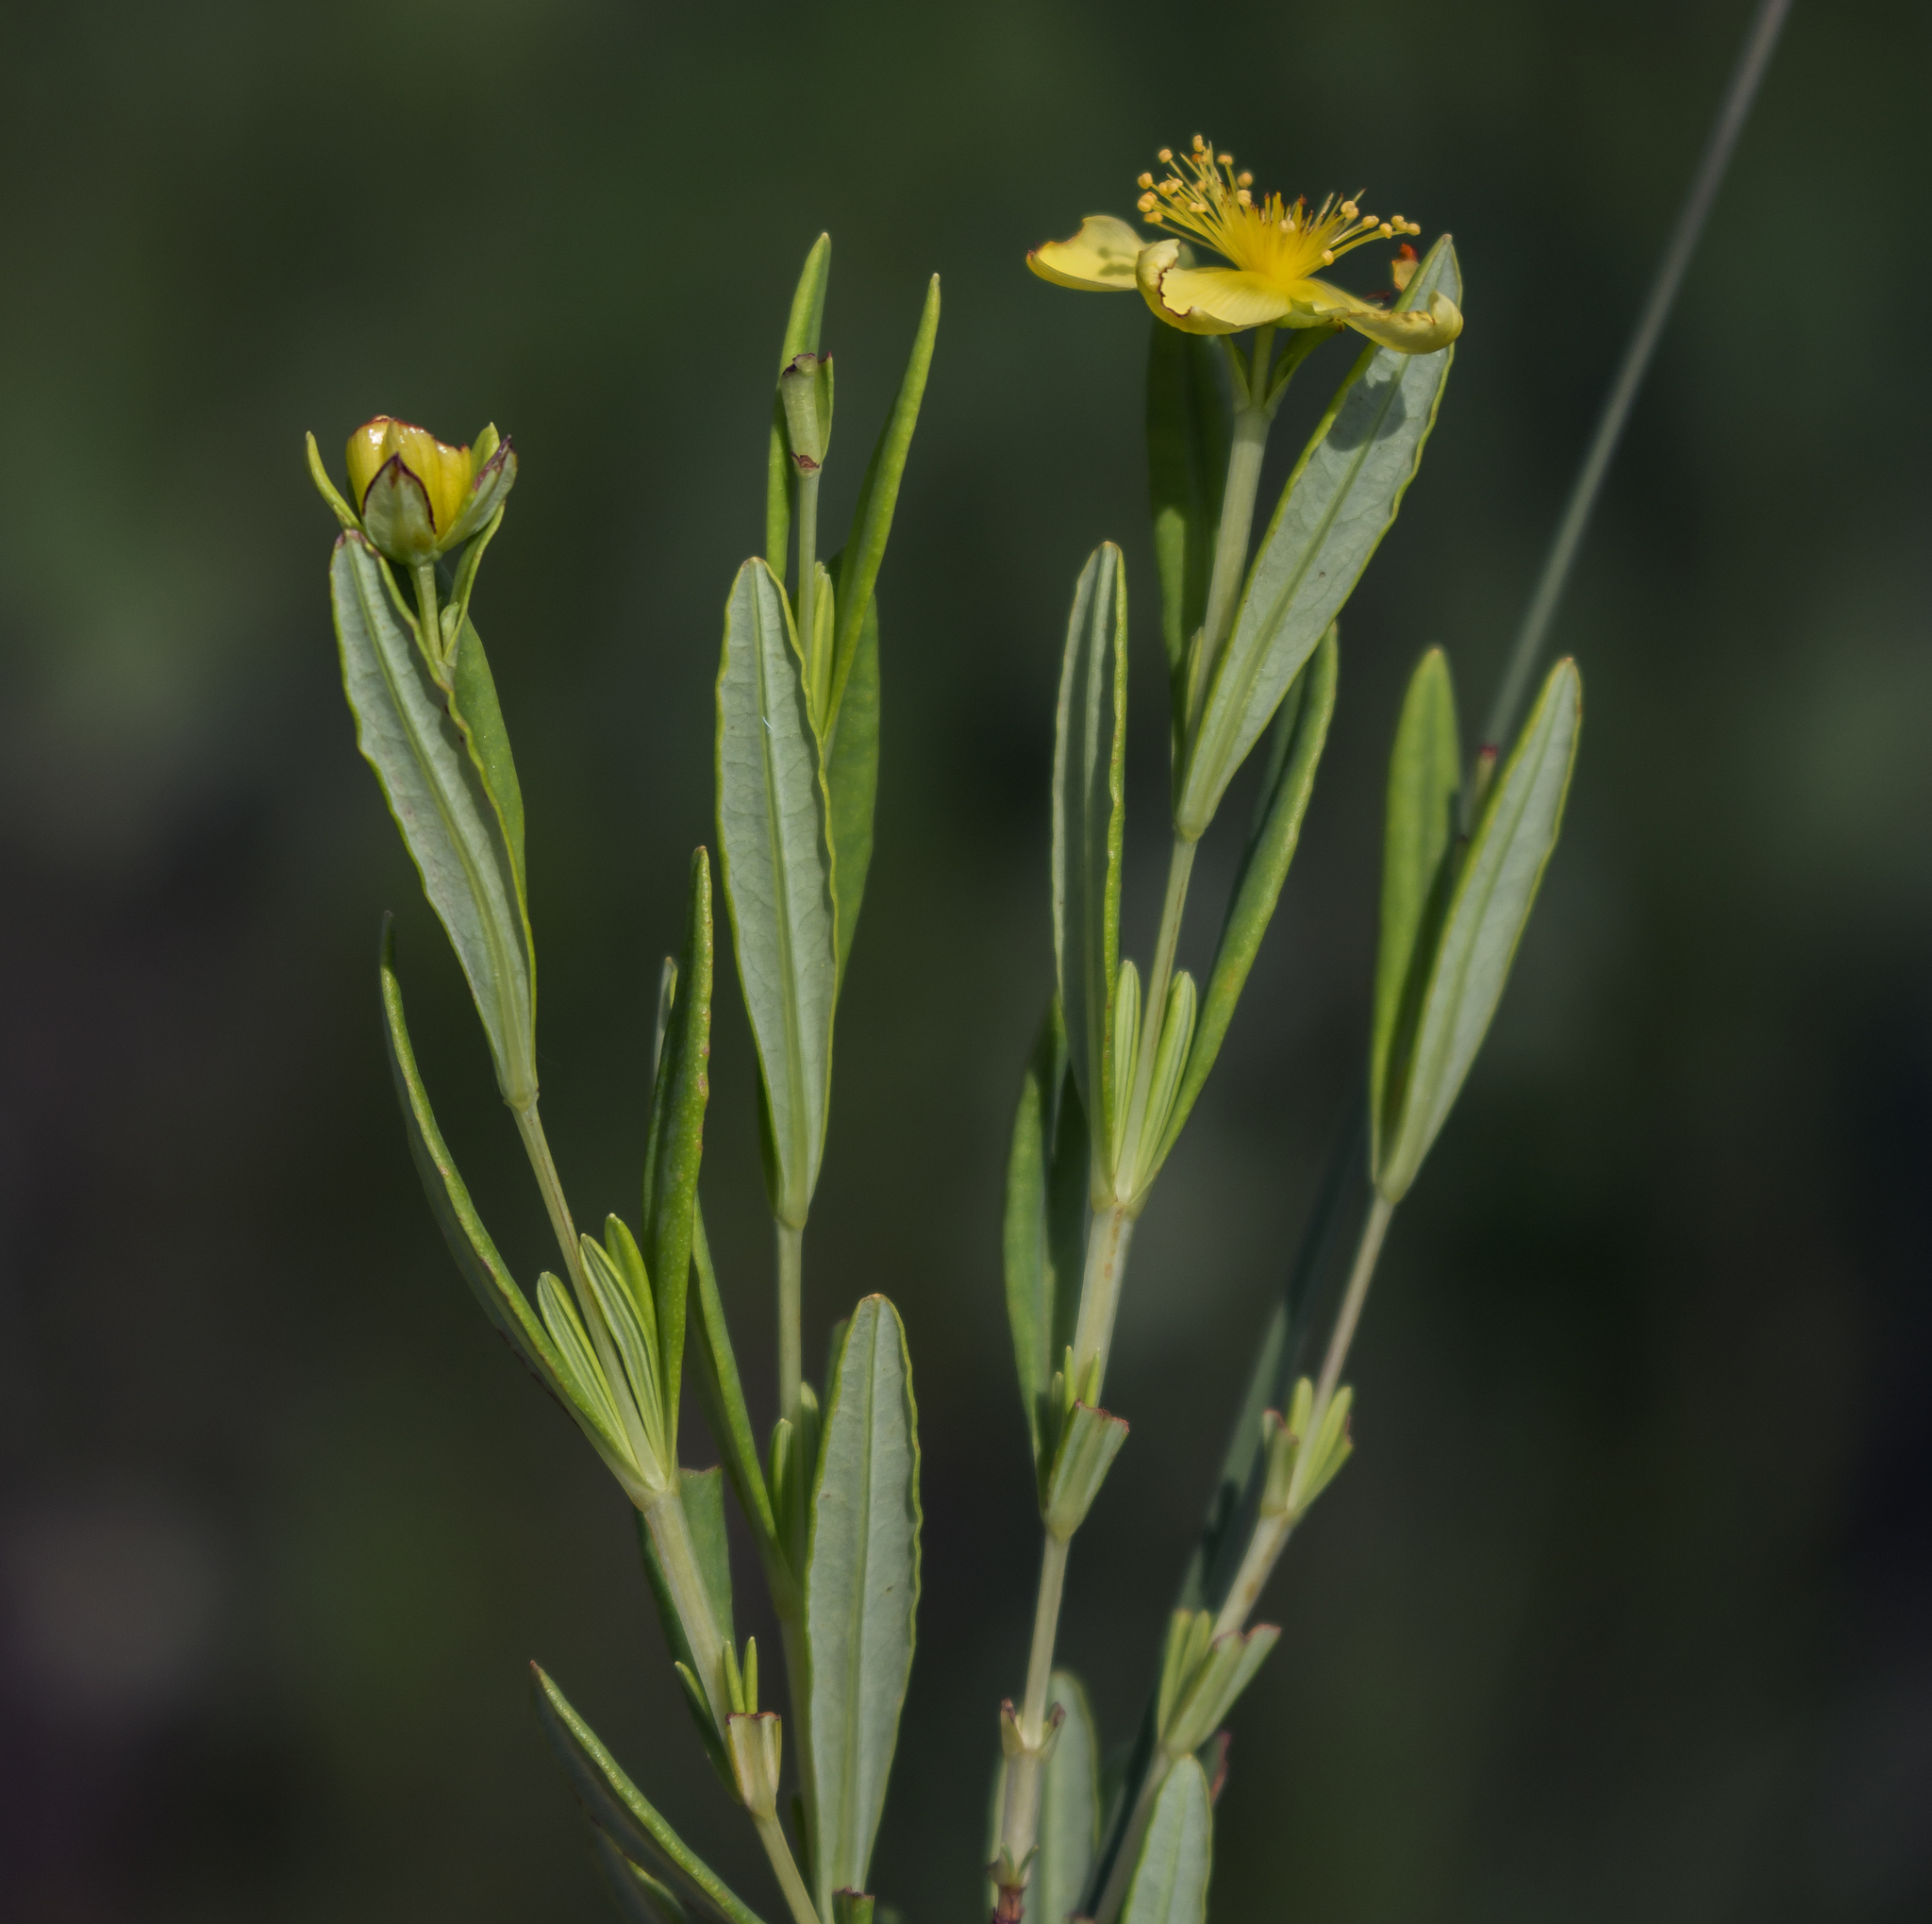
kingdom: Plantae
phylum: Tracheophyta
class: Magnoliopsida
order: Malpighiales
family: Hypericaceae
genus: Hypericum
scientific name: Hypericum kalmianum
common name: Kalm's st. john's-wort
